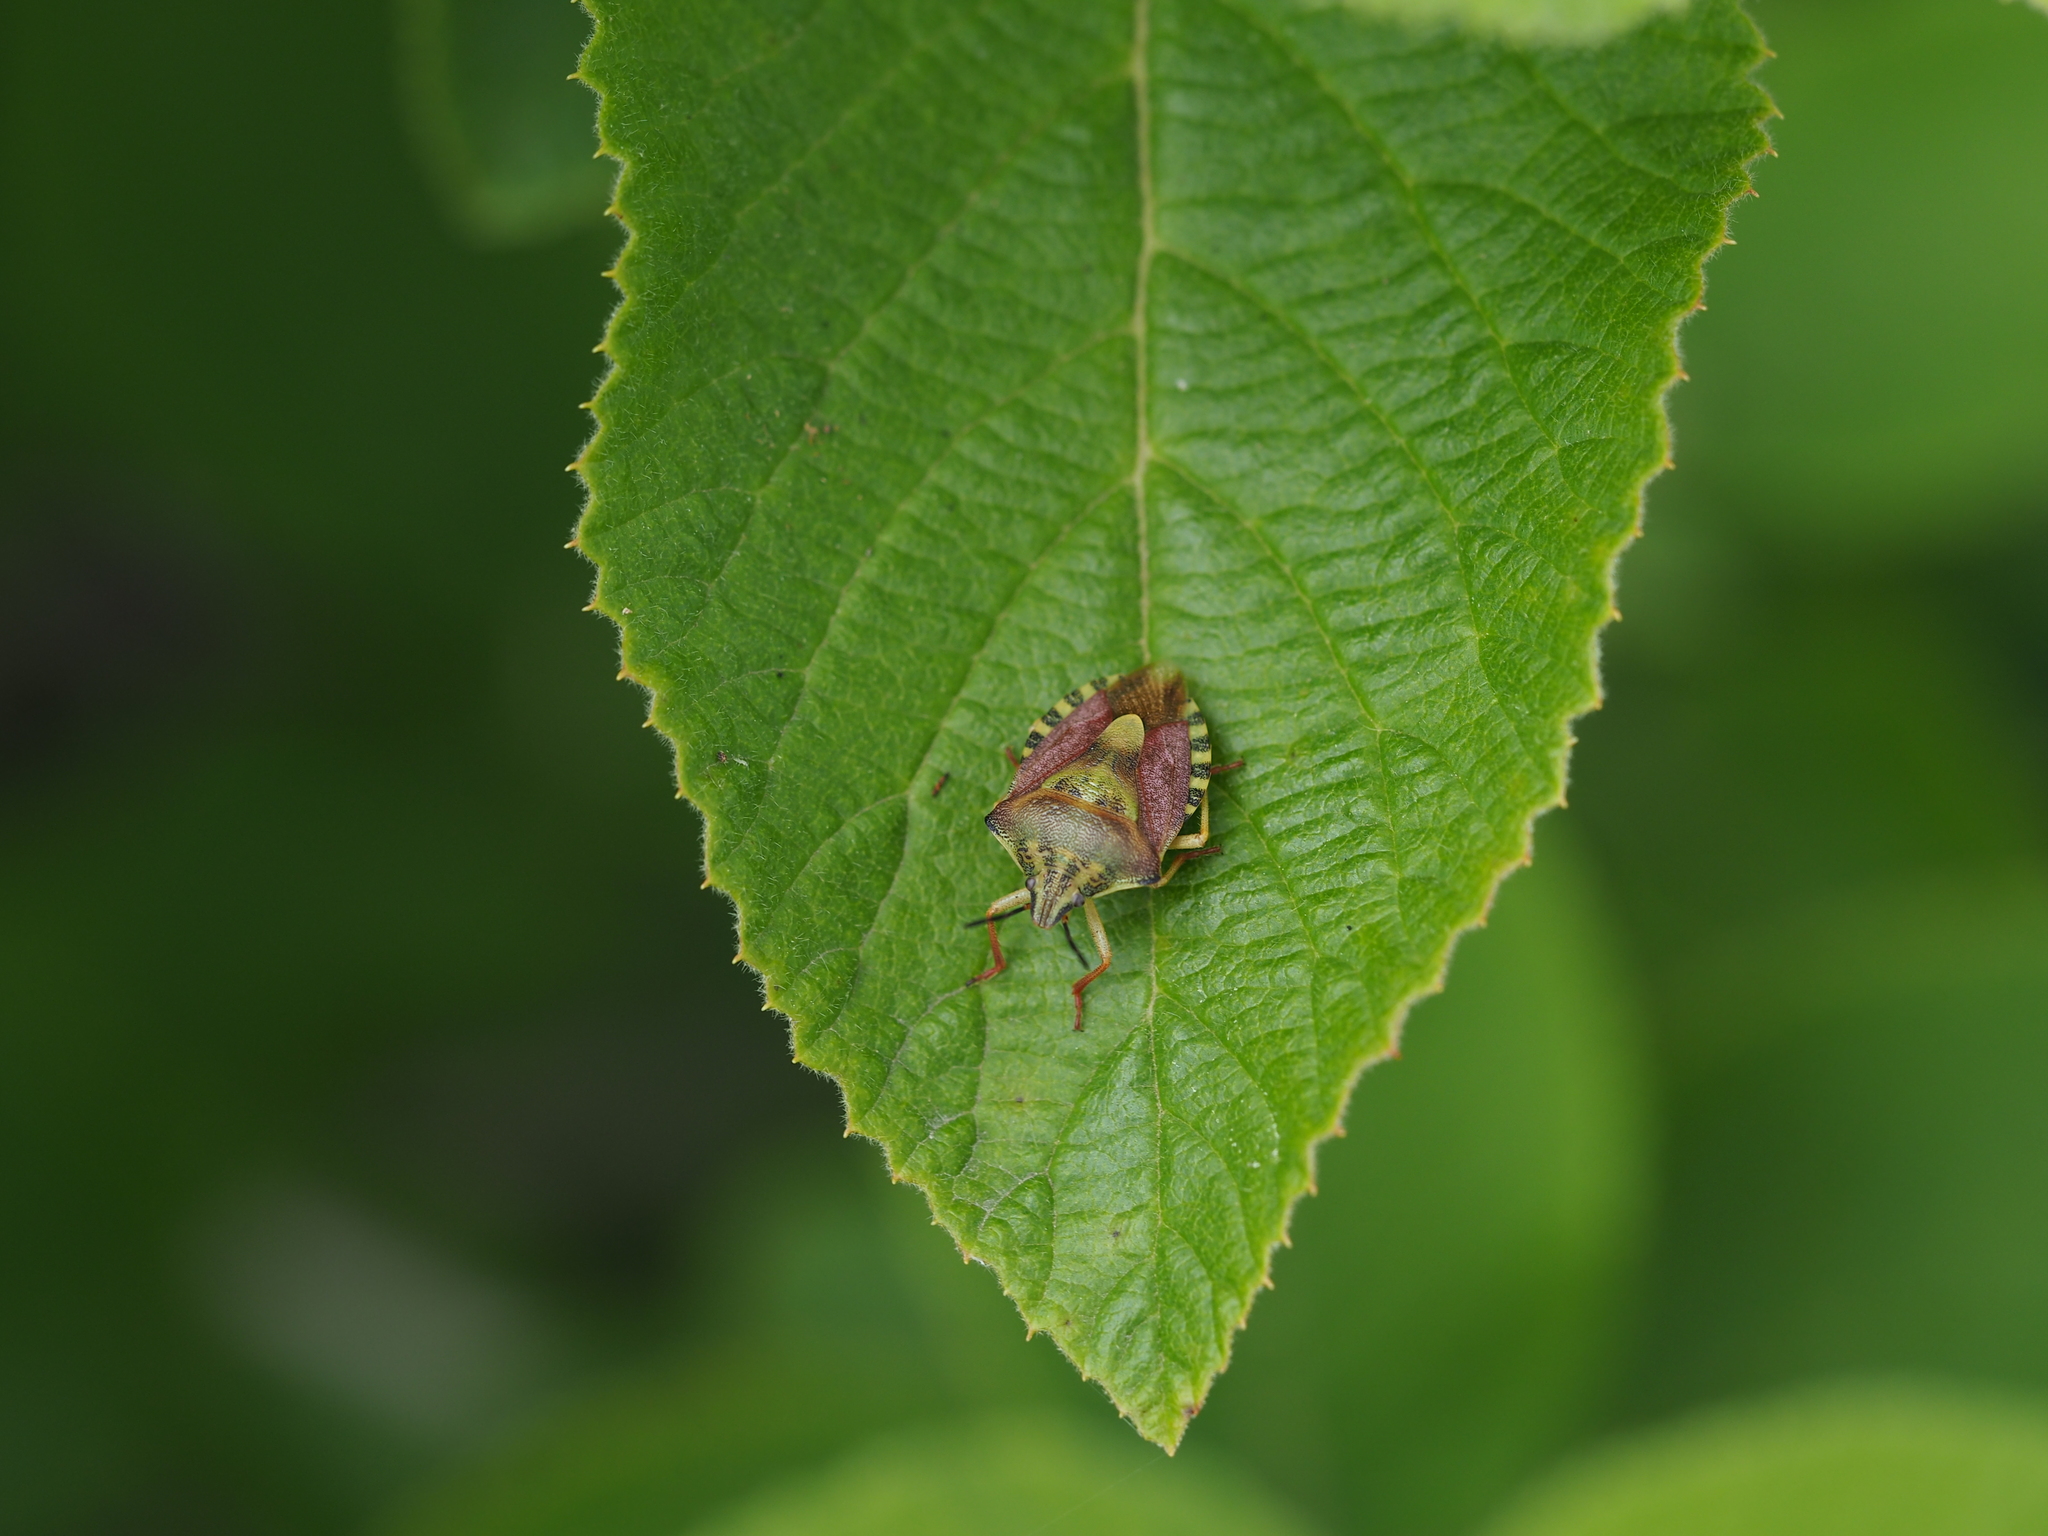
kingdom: Animalia
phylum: Arthropoda
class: Insecta
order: Hemiptera
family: Pentatomidae
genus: Carpocoris
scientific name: Carpocoris purpureipennis
